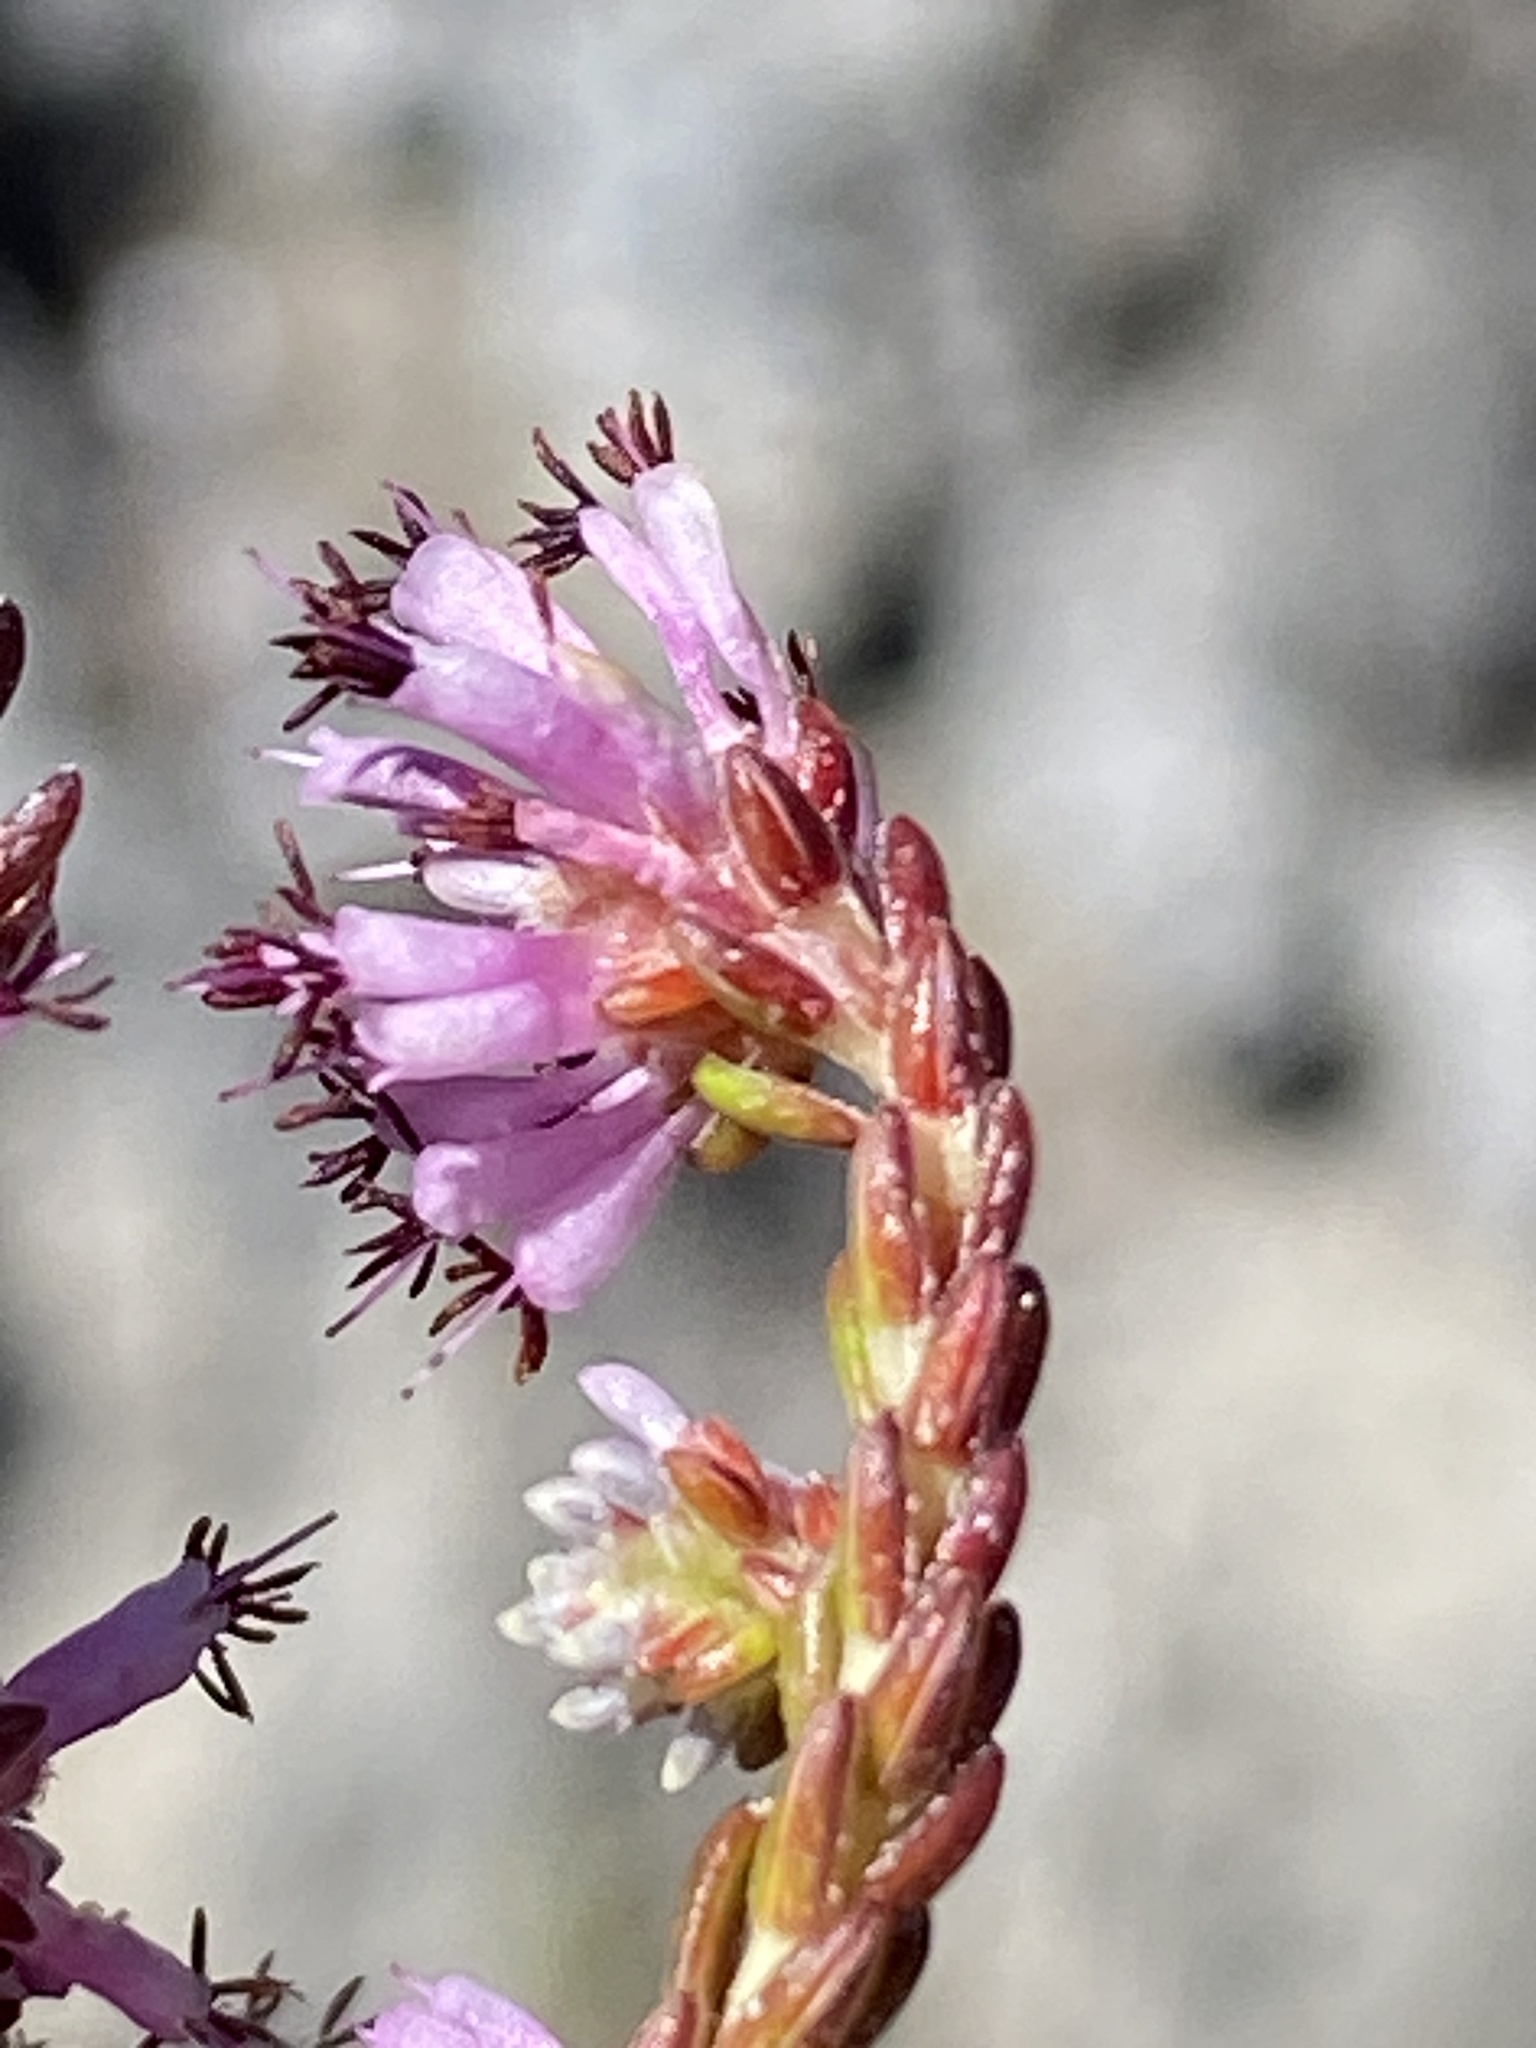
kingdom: Plantae
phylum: Tracheophyta
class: Magnoliopsida
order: Ericales
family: Ericaceae
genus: Erica
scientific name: Erica labialis
